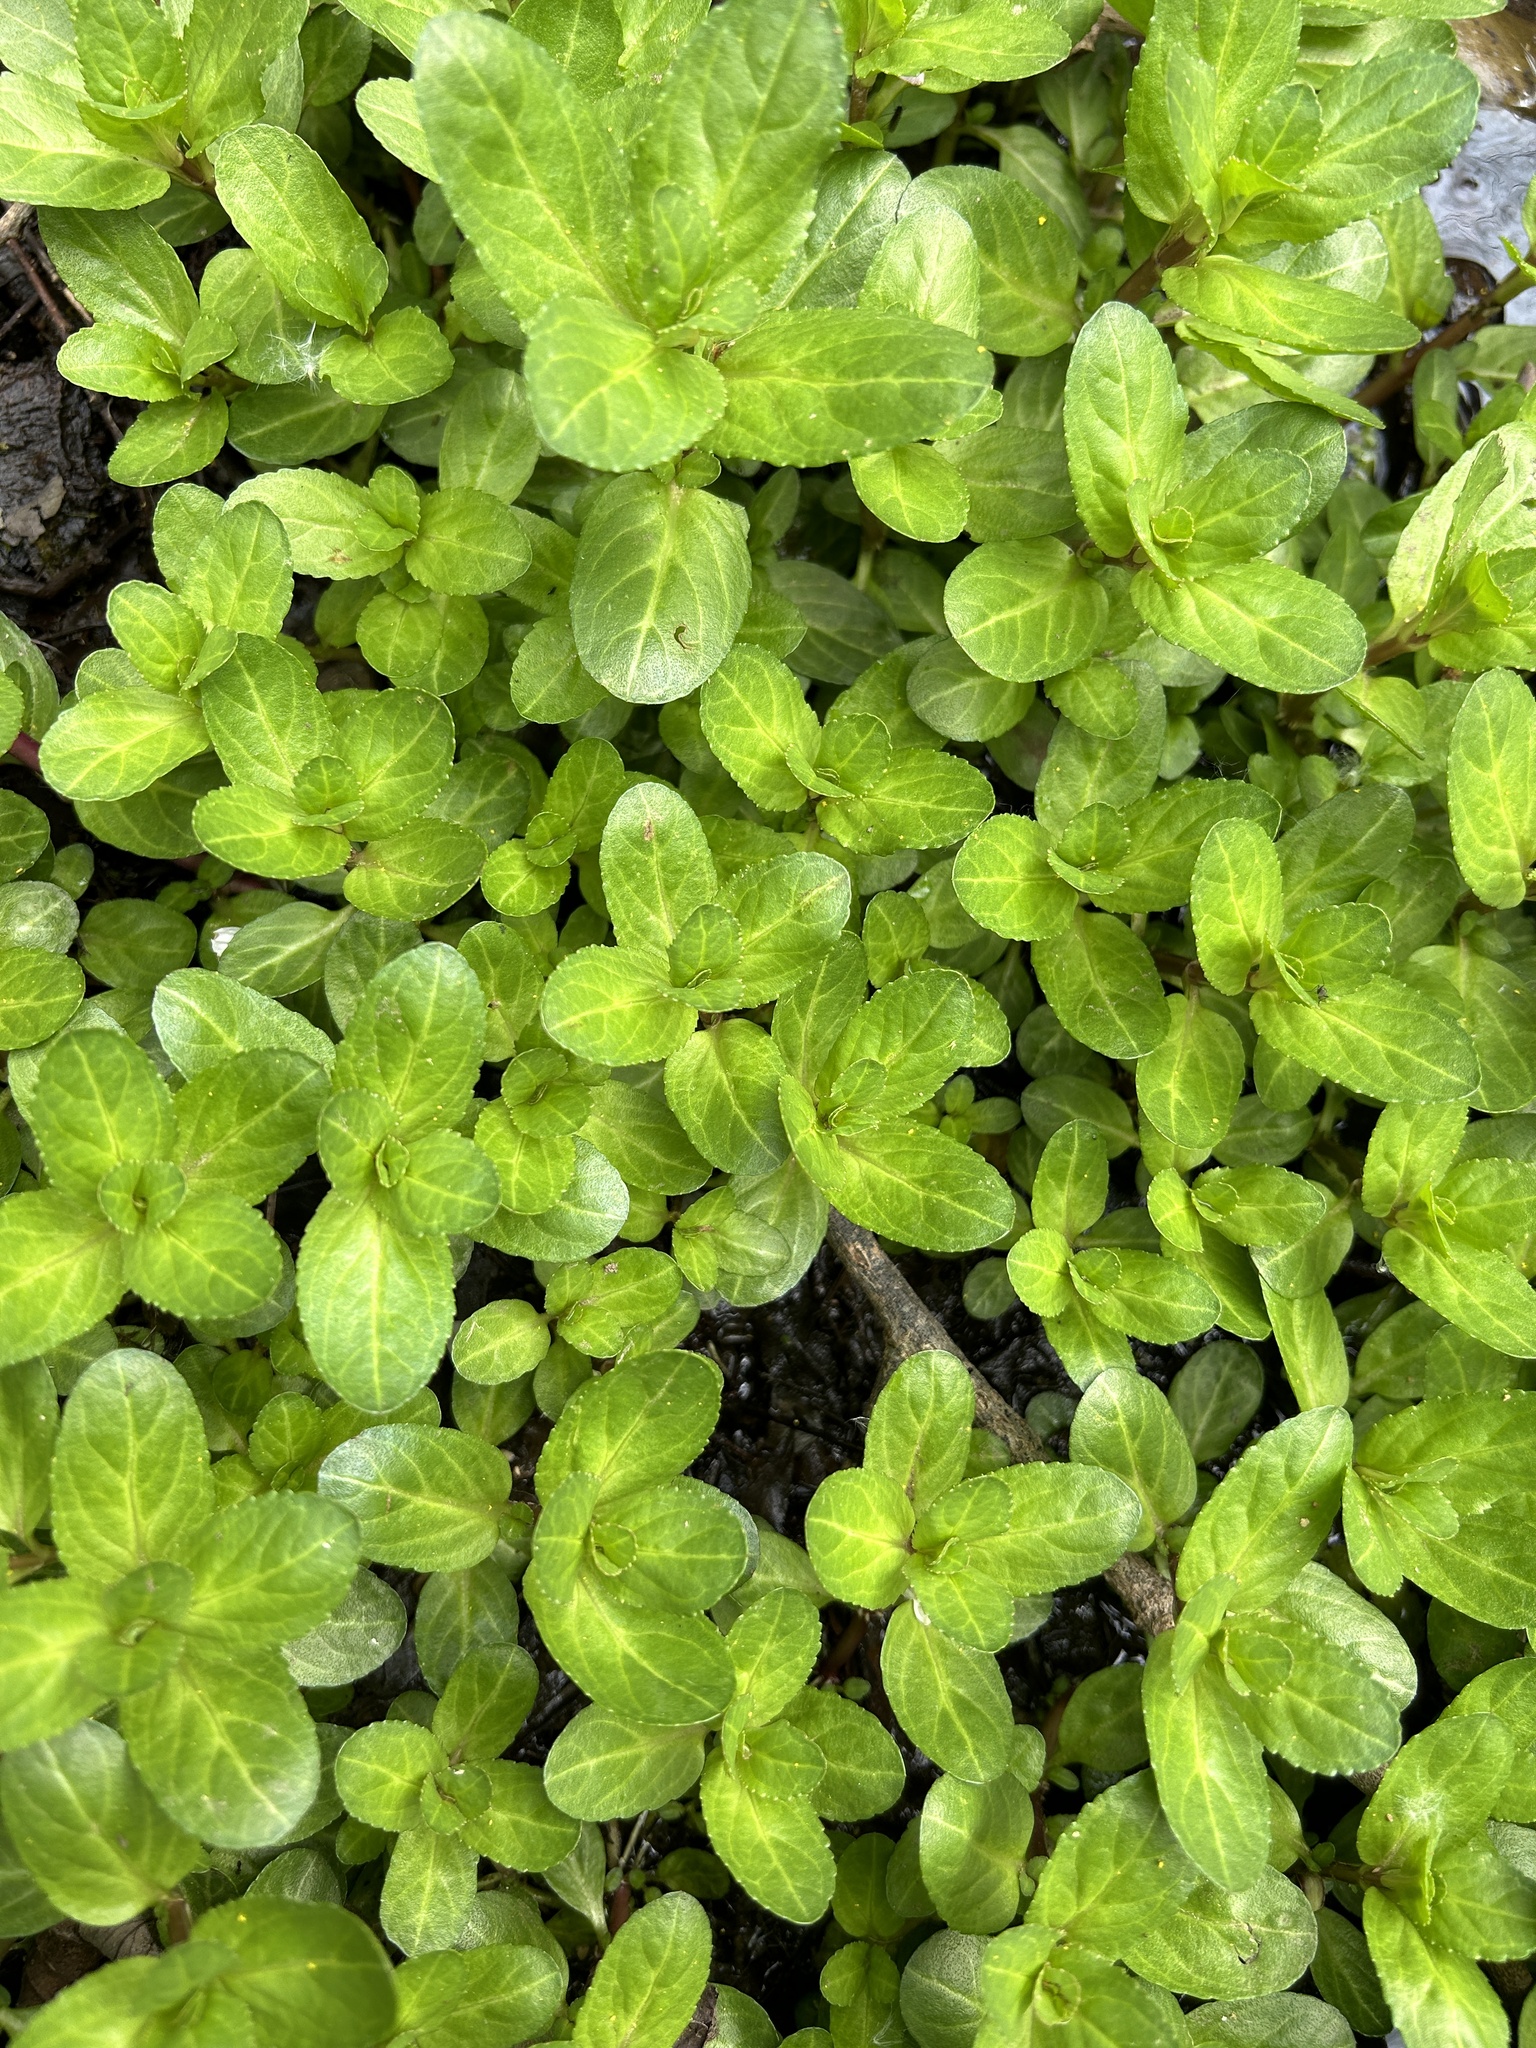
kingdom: Plantae
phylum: Tracheophyta
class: Magnoliopsida
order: Lamiales
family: Plantaginaceae
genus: Veronica
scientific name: Veronica beccabunga
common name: Brooklime
